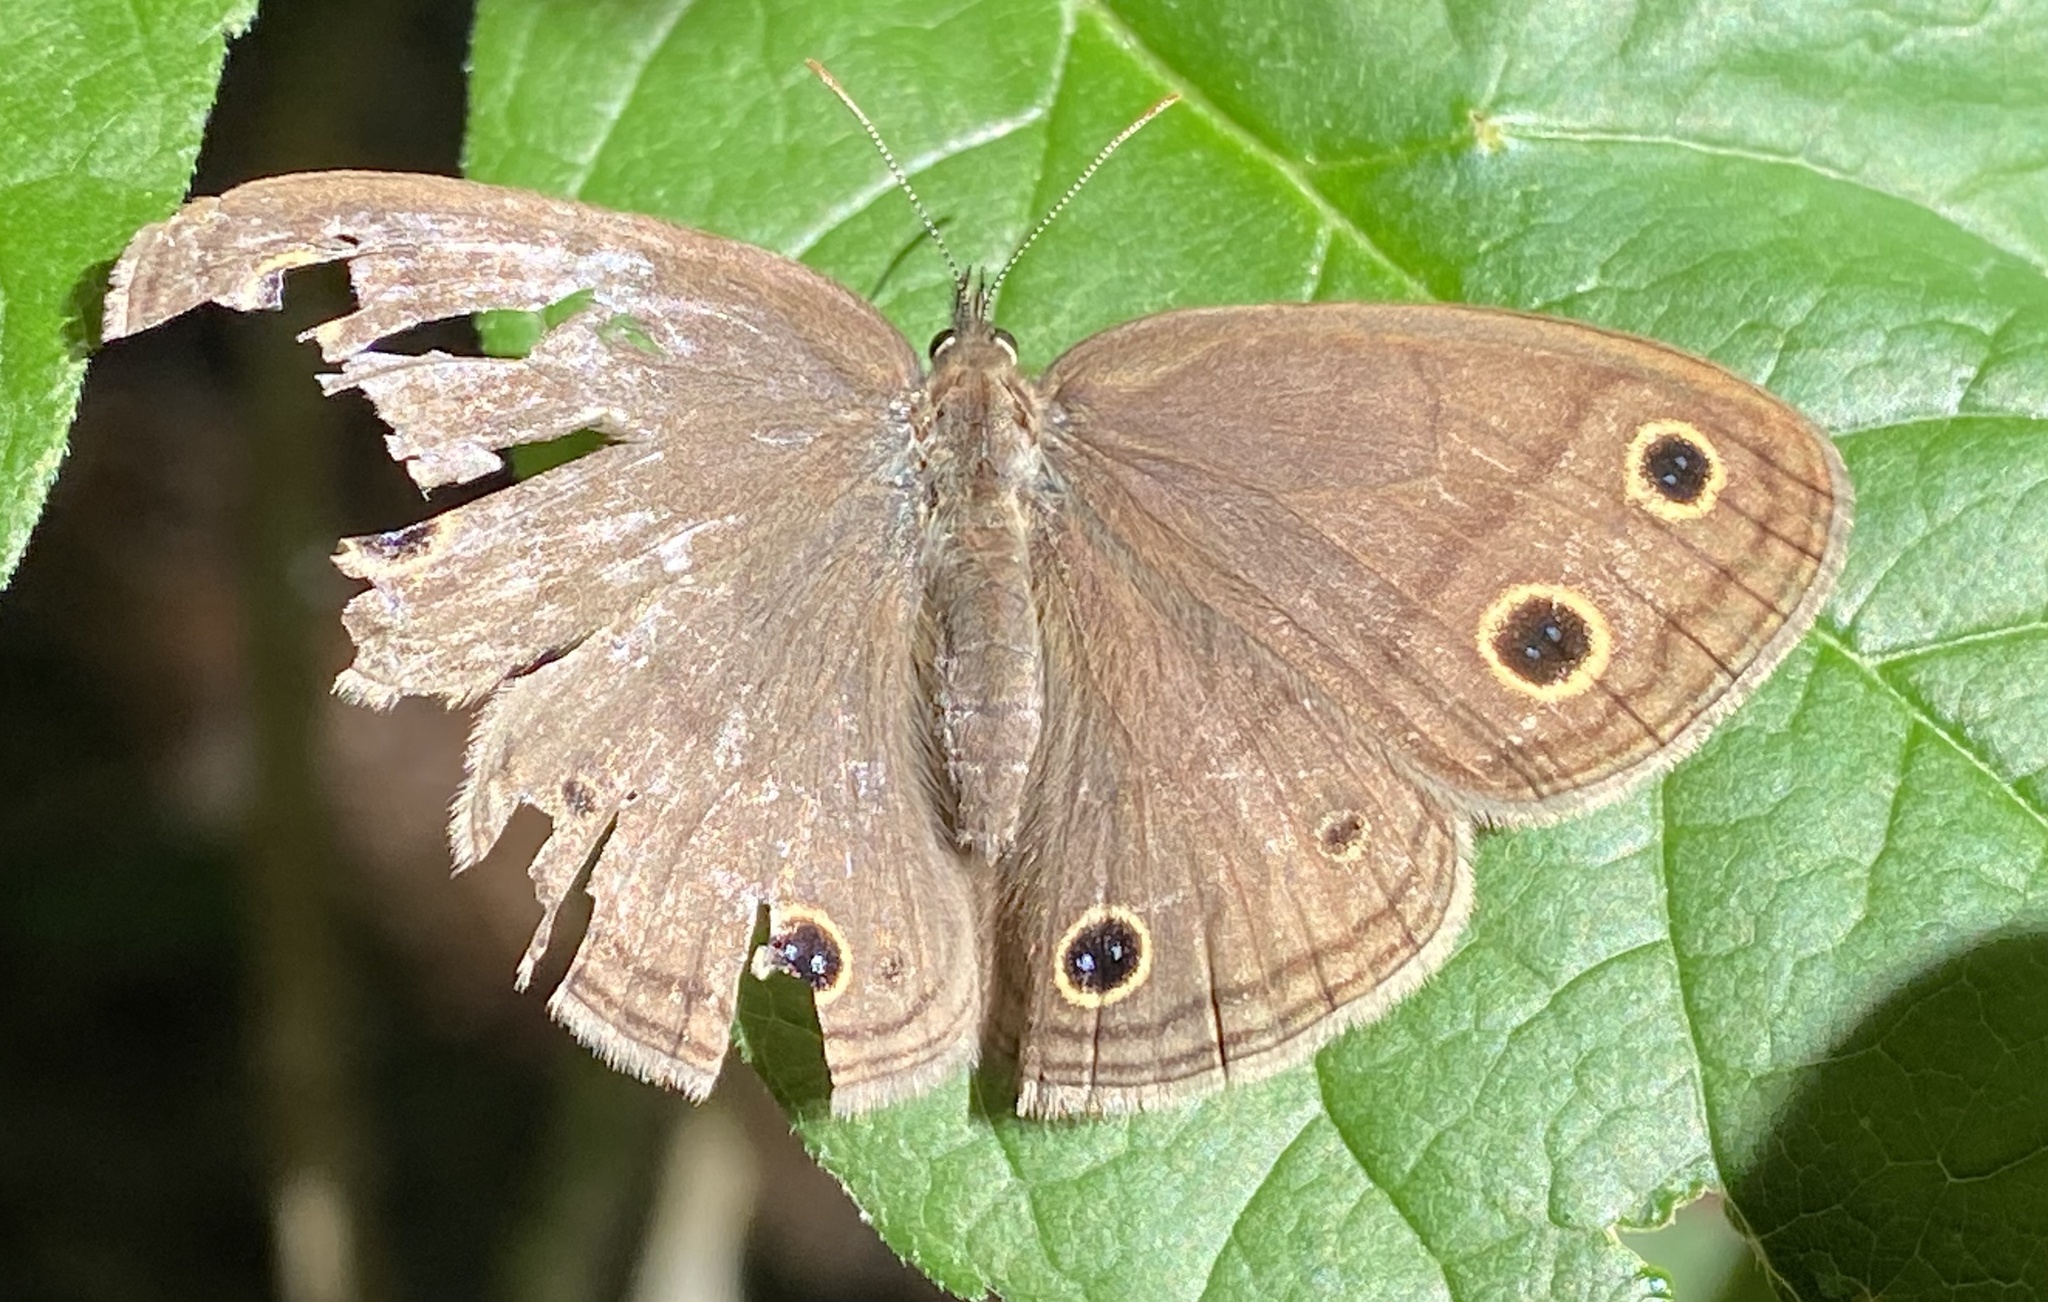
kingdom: Animalia
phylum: Arthropoda
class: Insecta
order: Lepidoptera
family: Nymphalidae
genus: Euptychia
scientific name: Euptychia cymela
